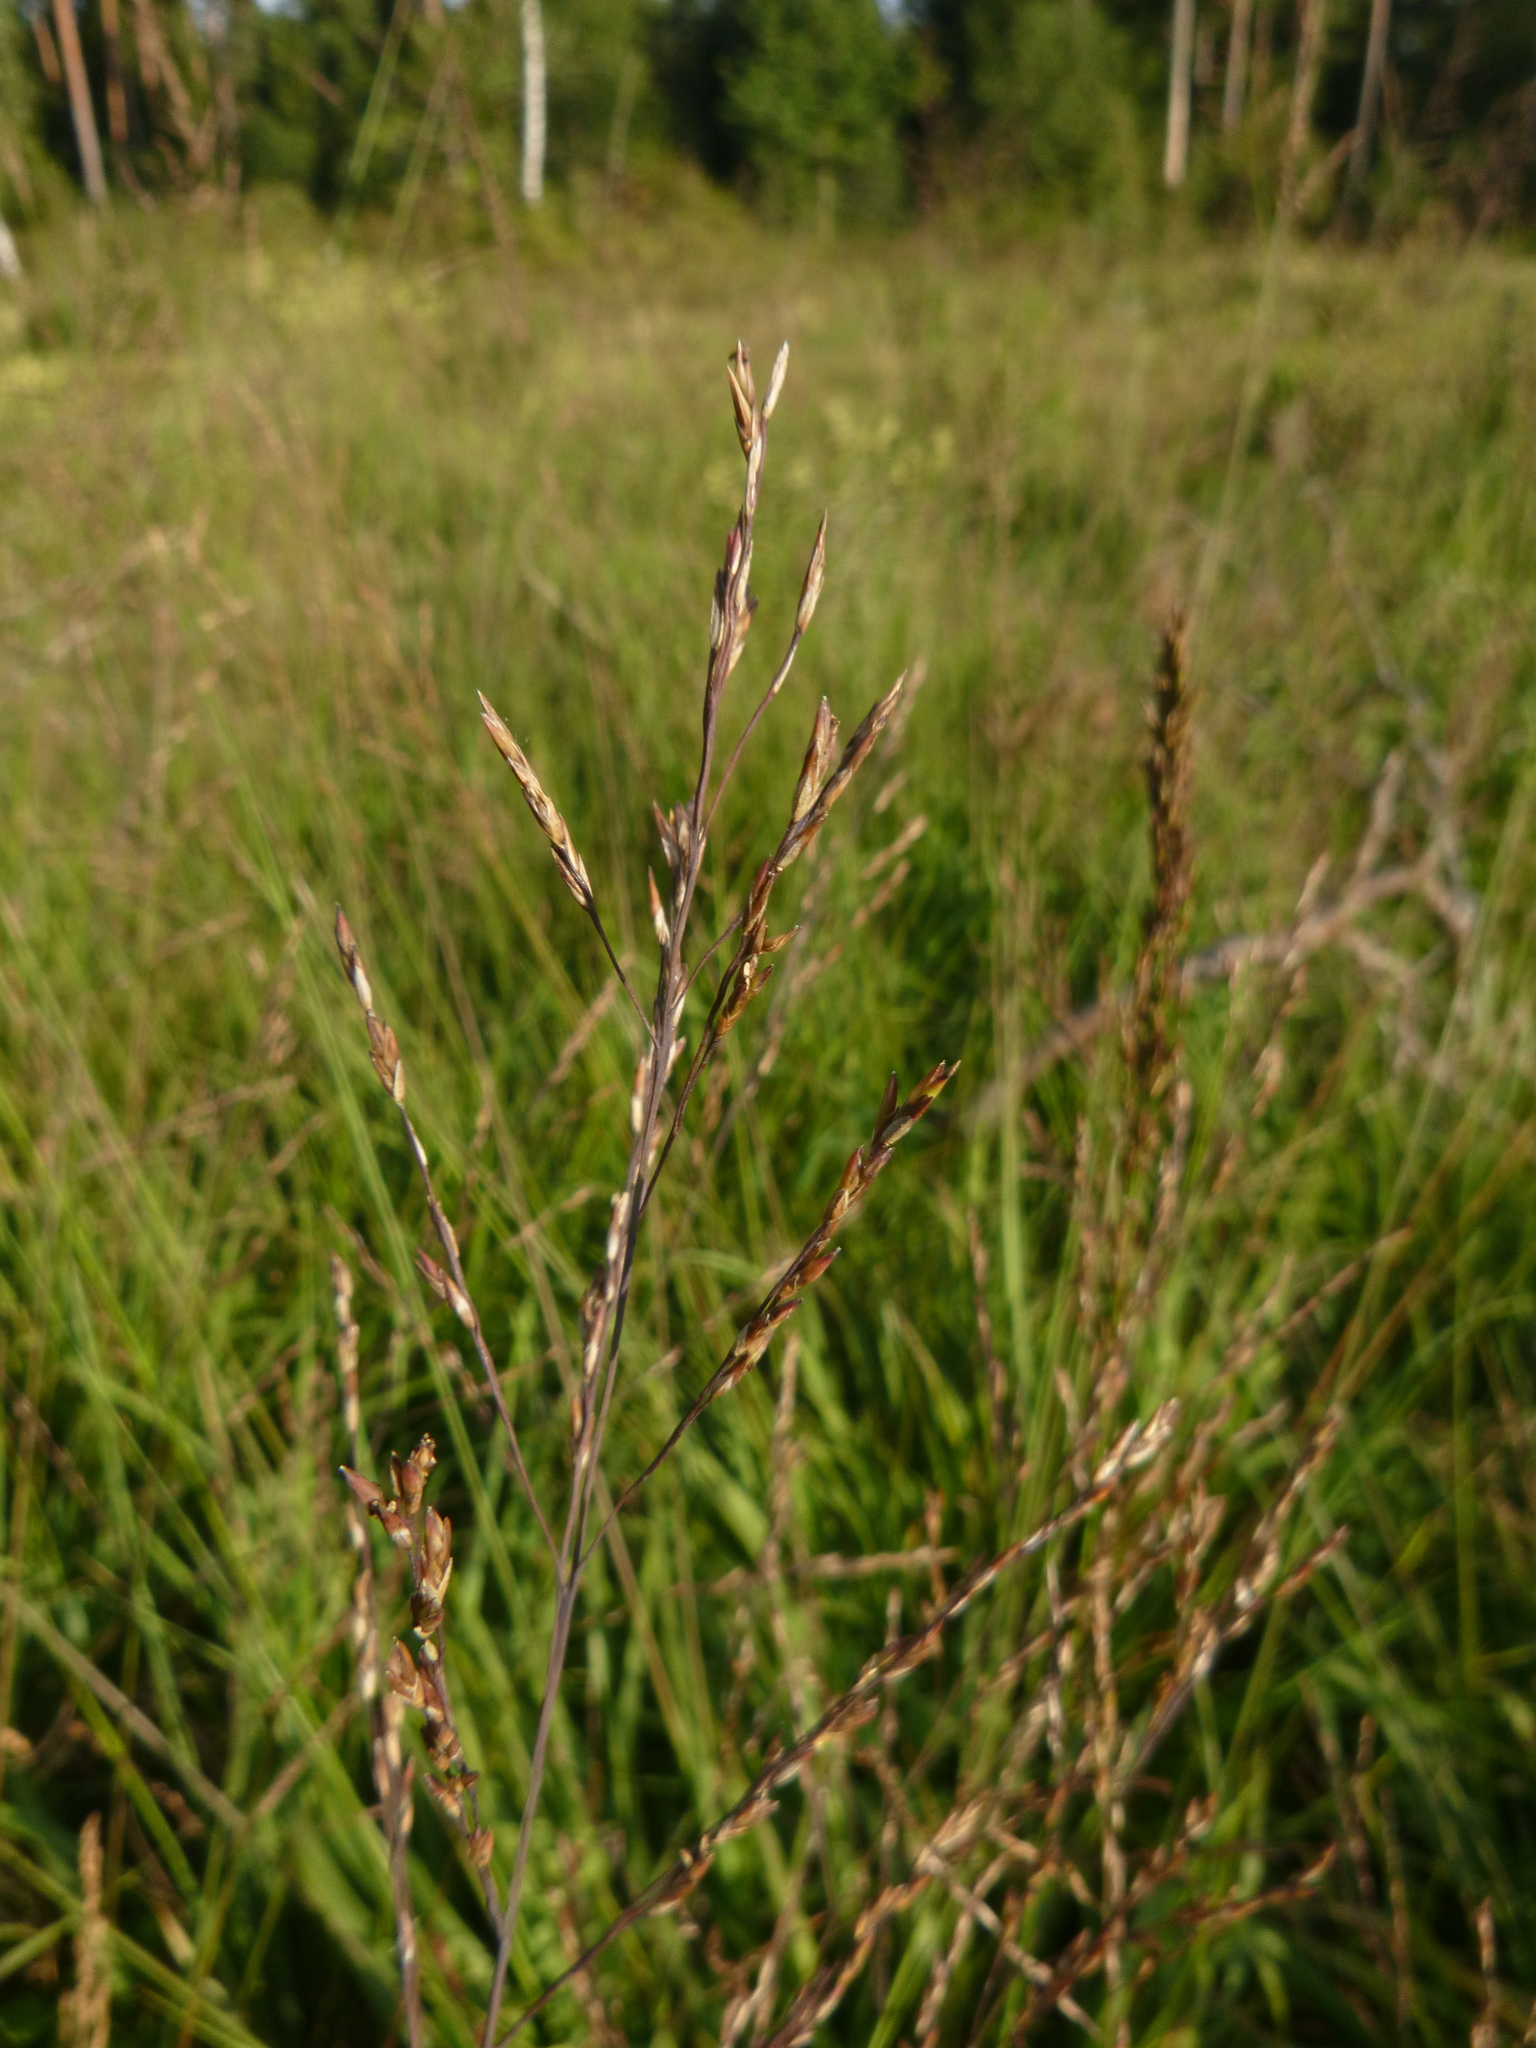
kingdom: Plantae
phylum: Tracheophyta
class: Liliopsida
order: Poales
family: Poaceae
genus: Molinia
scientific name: Molinia caerulea
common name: Purple moor-grass
